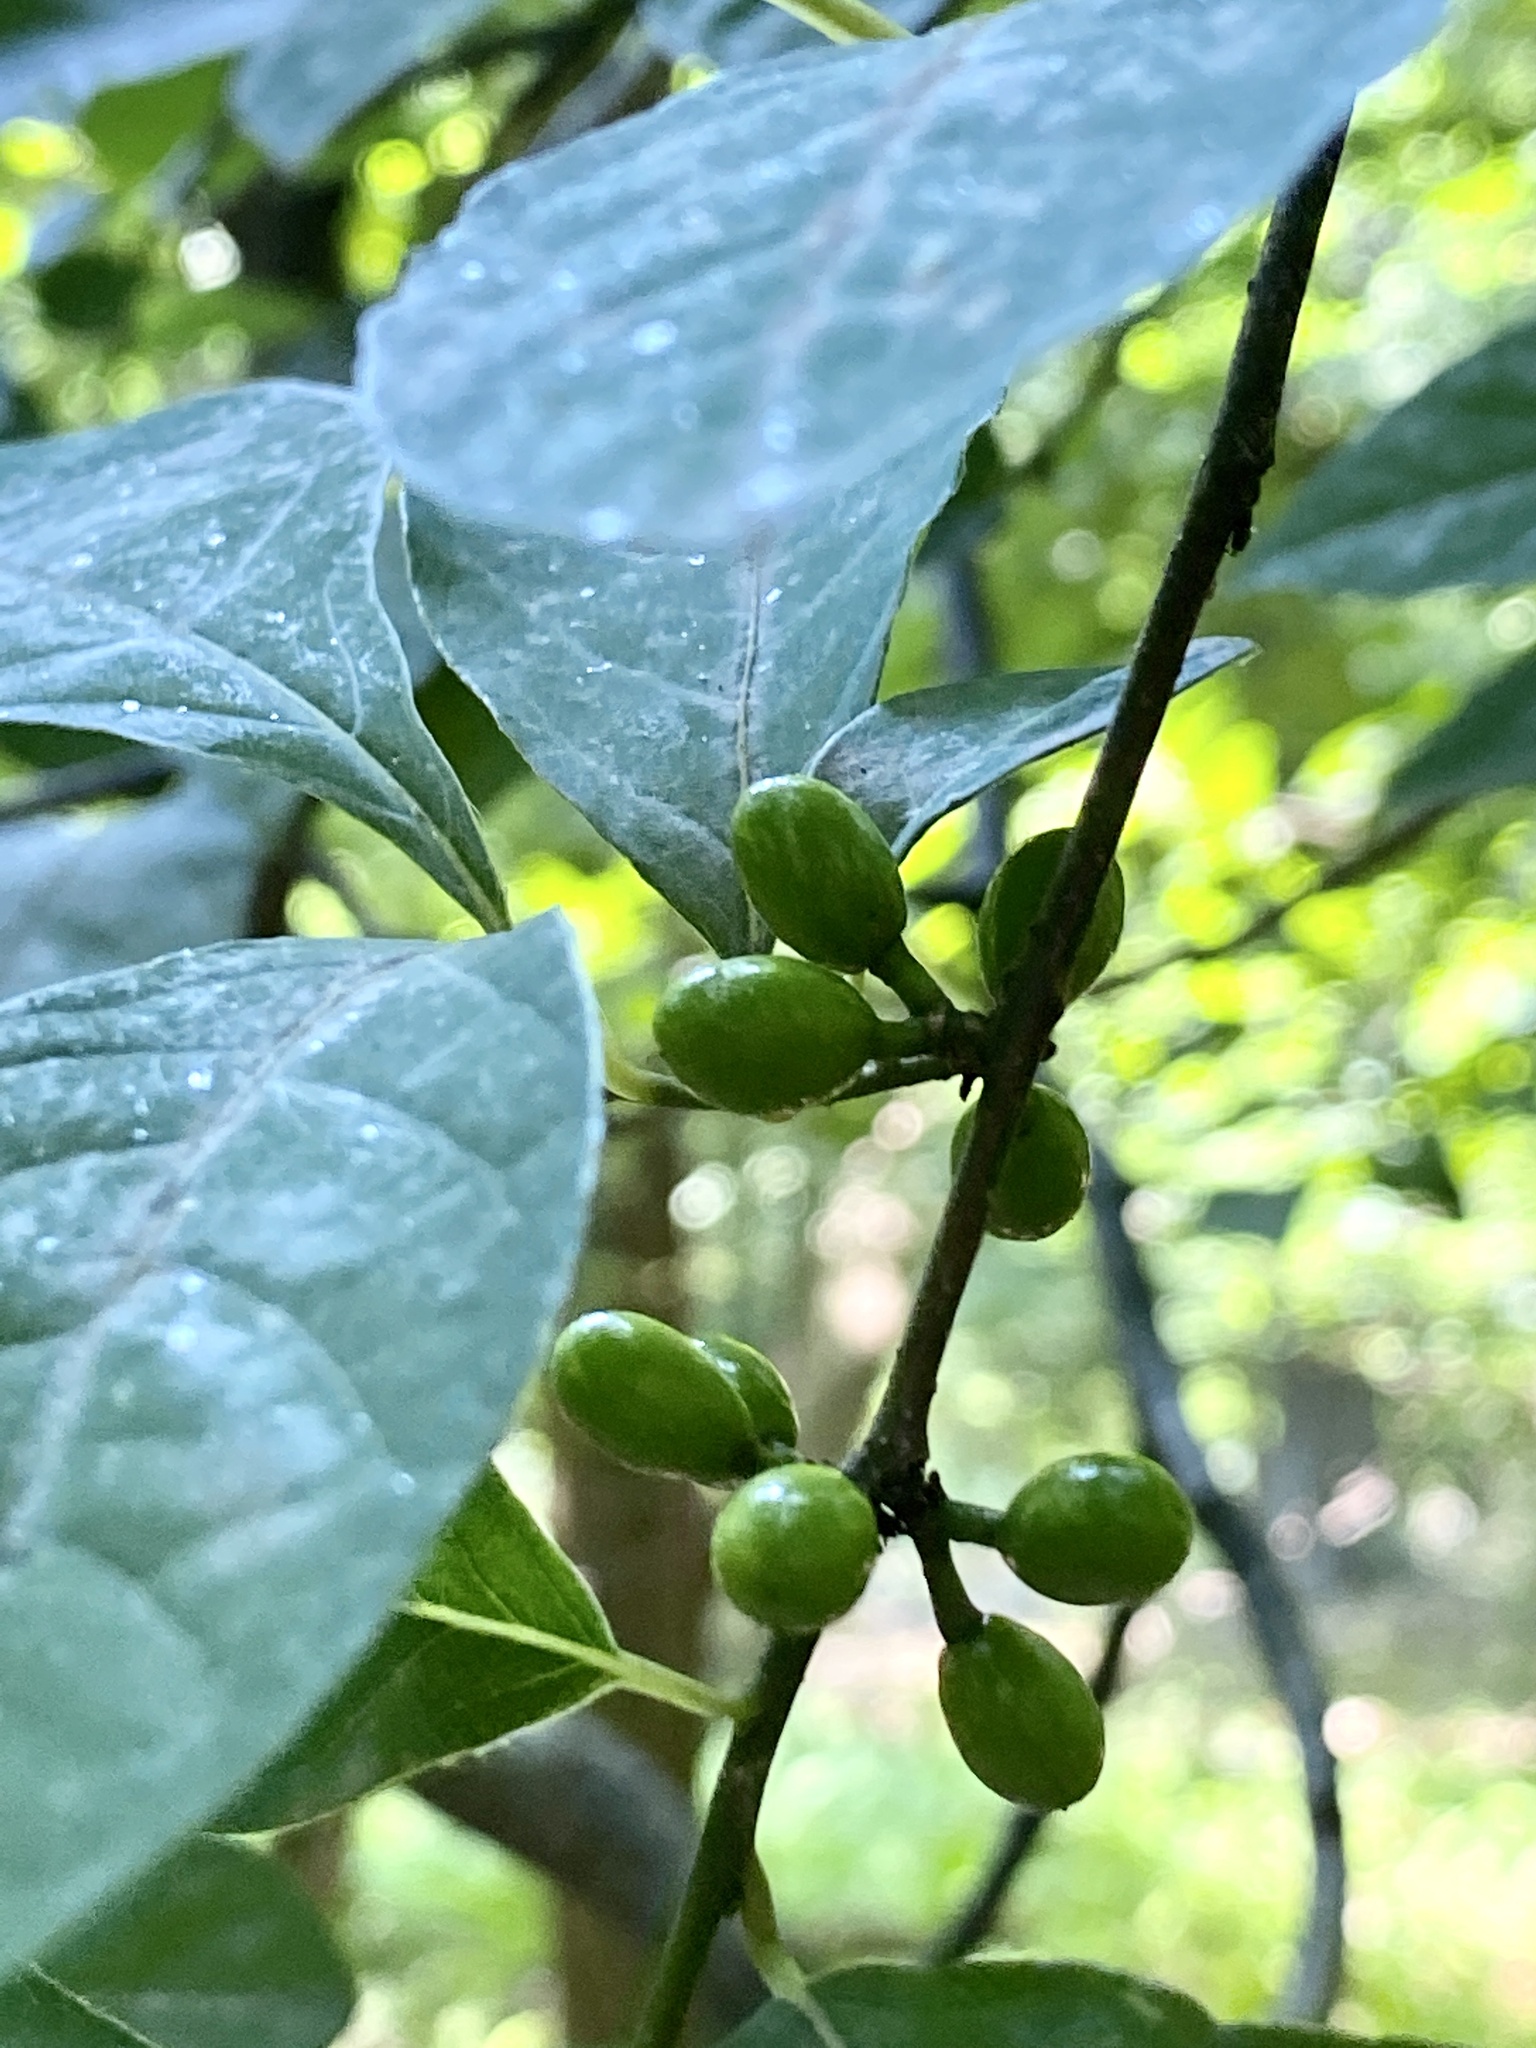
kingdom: Plantae
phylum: Tracheophyta
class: Magnoliopsida
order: Laurales
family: Lauraceae
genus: Lindera
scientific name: Lindera benzoin
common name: Spicebush
